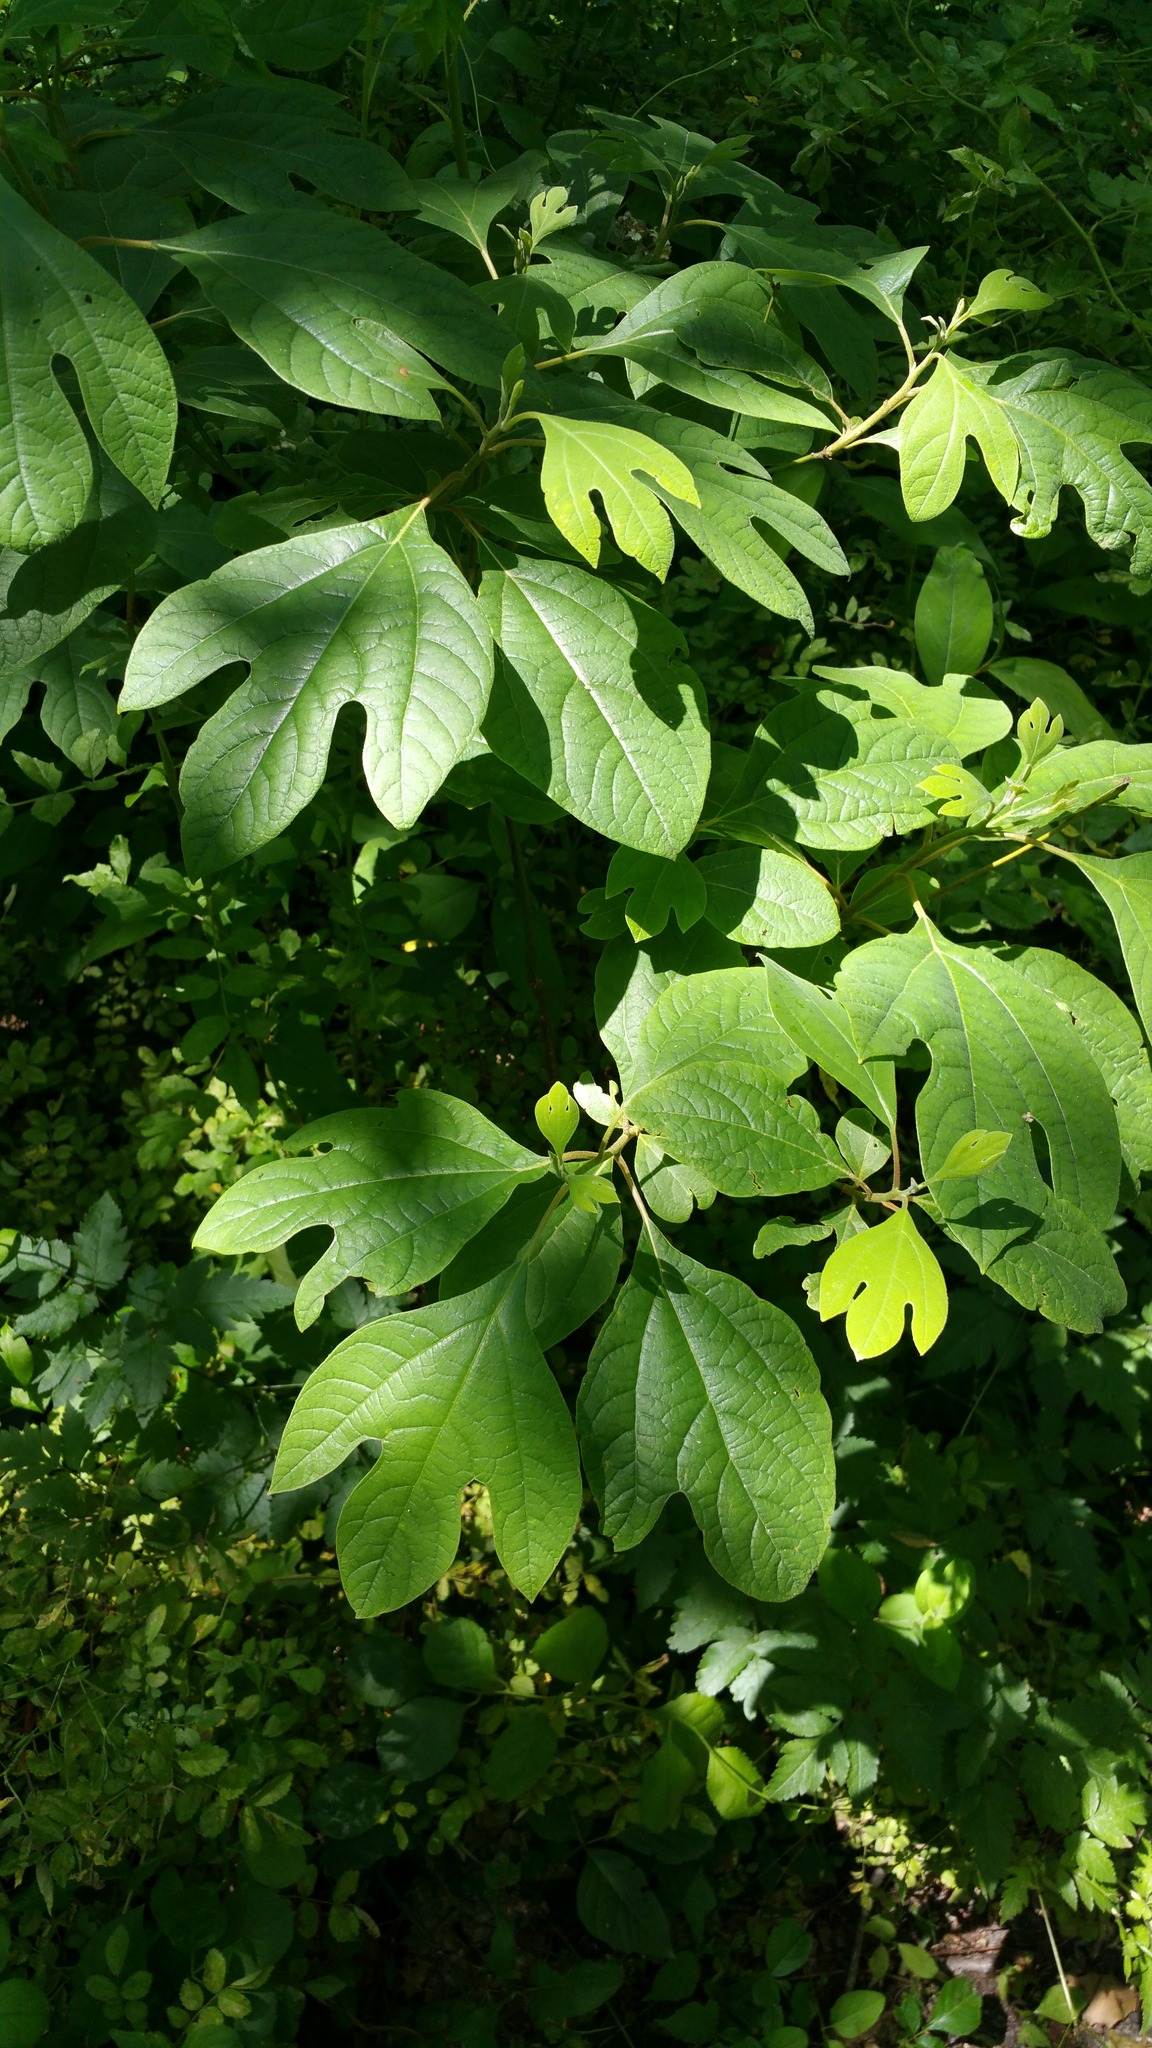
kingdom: Plantae
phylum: Tracheophyta
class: Magnoliopsida
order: Laurales
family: Lauraceae
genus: Sassafras
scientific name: Sassafras albidum
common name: Sassafras
